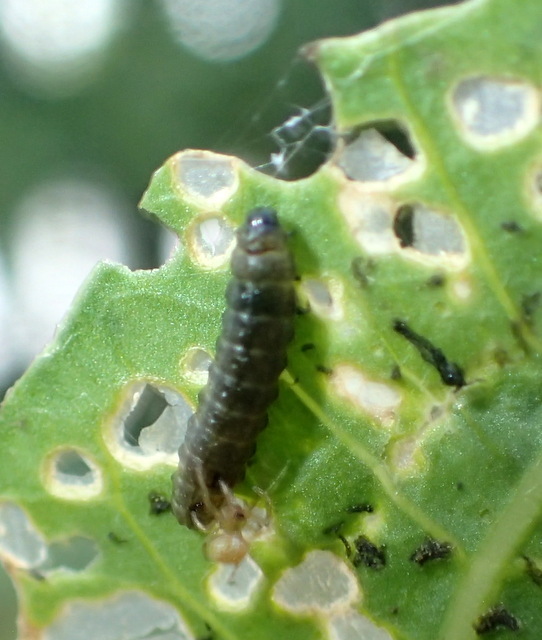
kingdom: Animalia
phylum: Arthropoda
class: Insecta
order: Coleoptera
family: Chrysomelidae
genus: Agasicles
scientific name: Agasicles hygrophila
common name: Alligatorweed flea beetle
